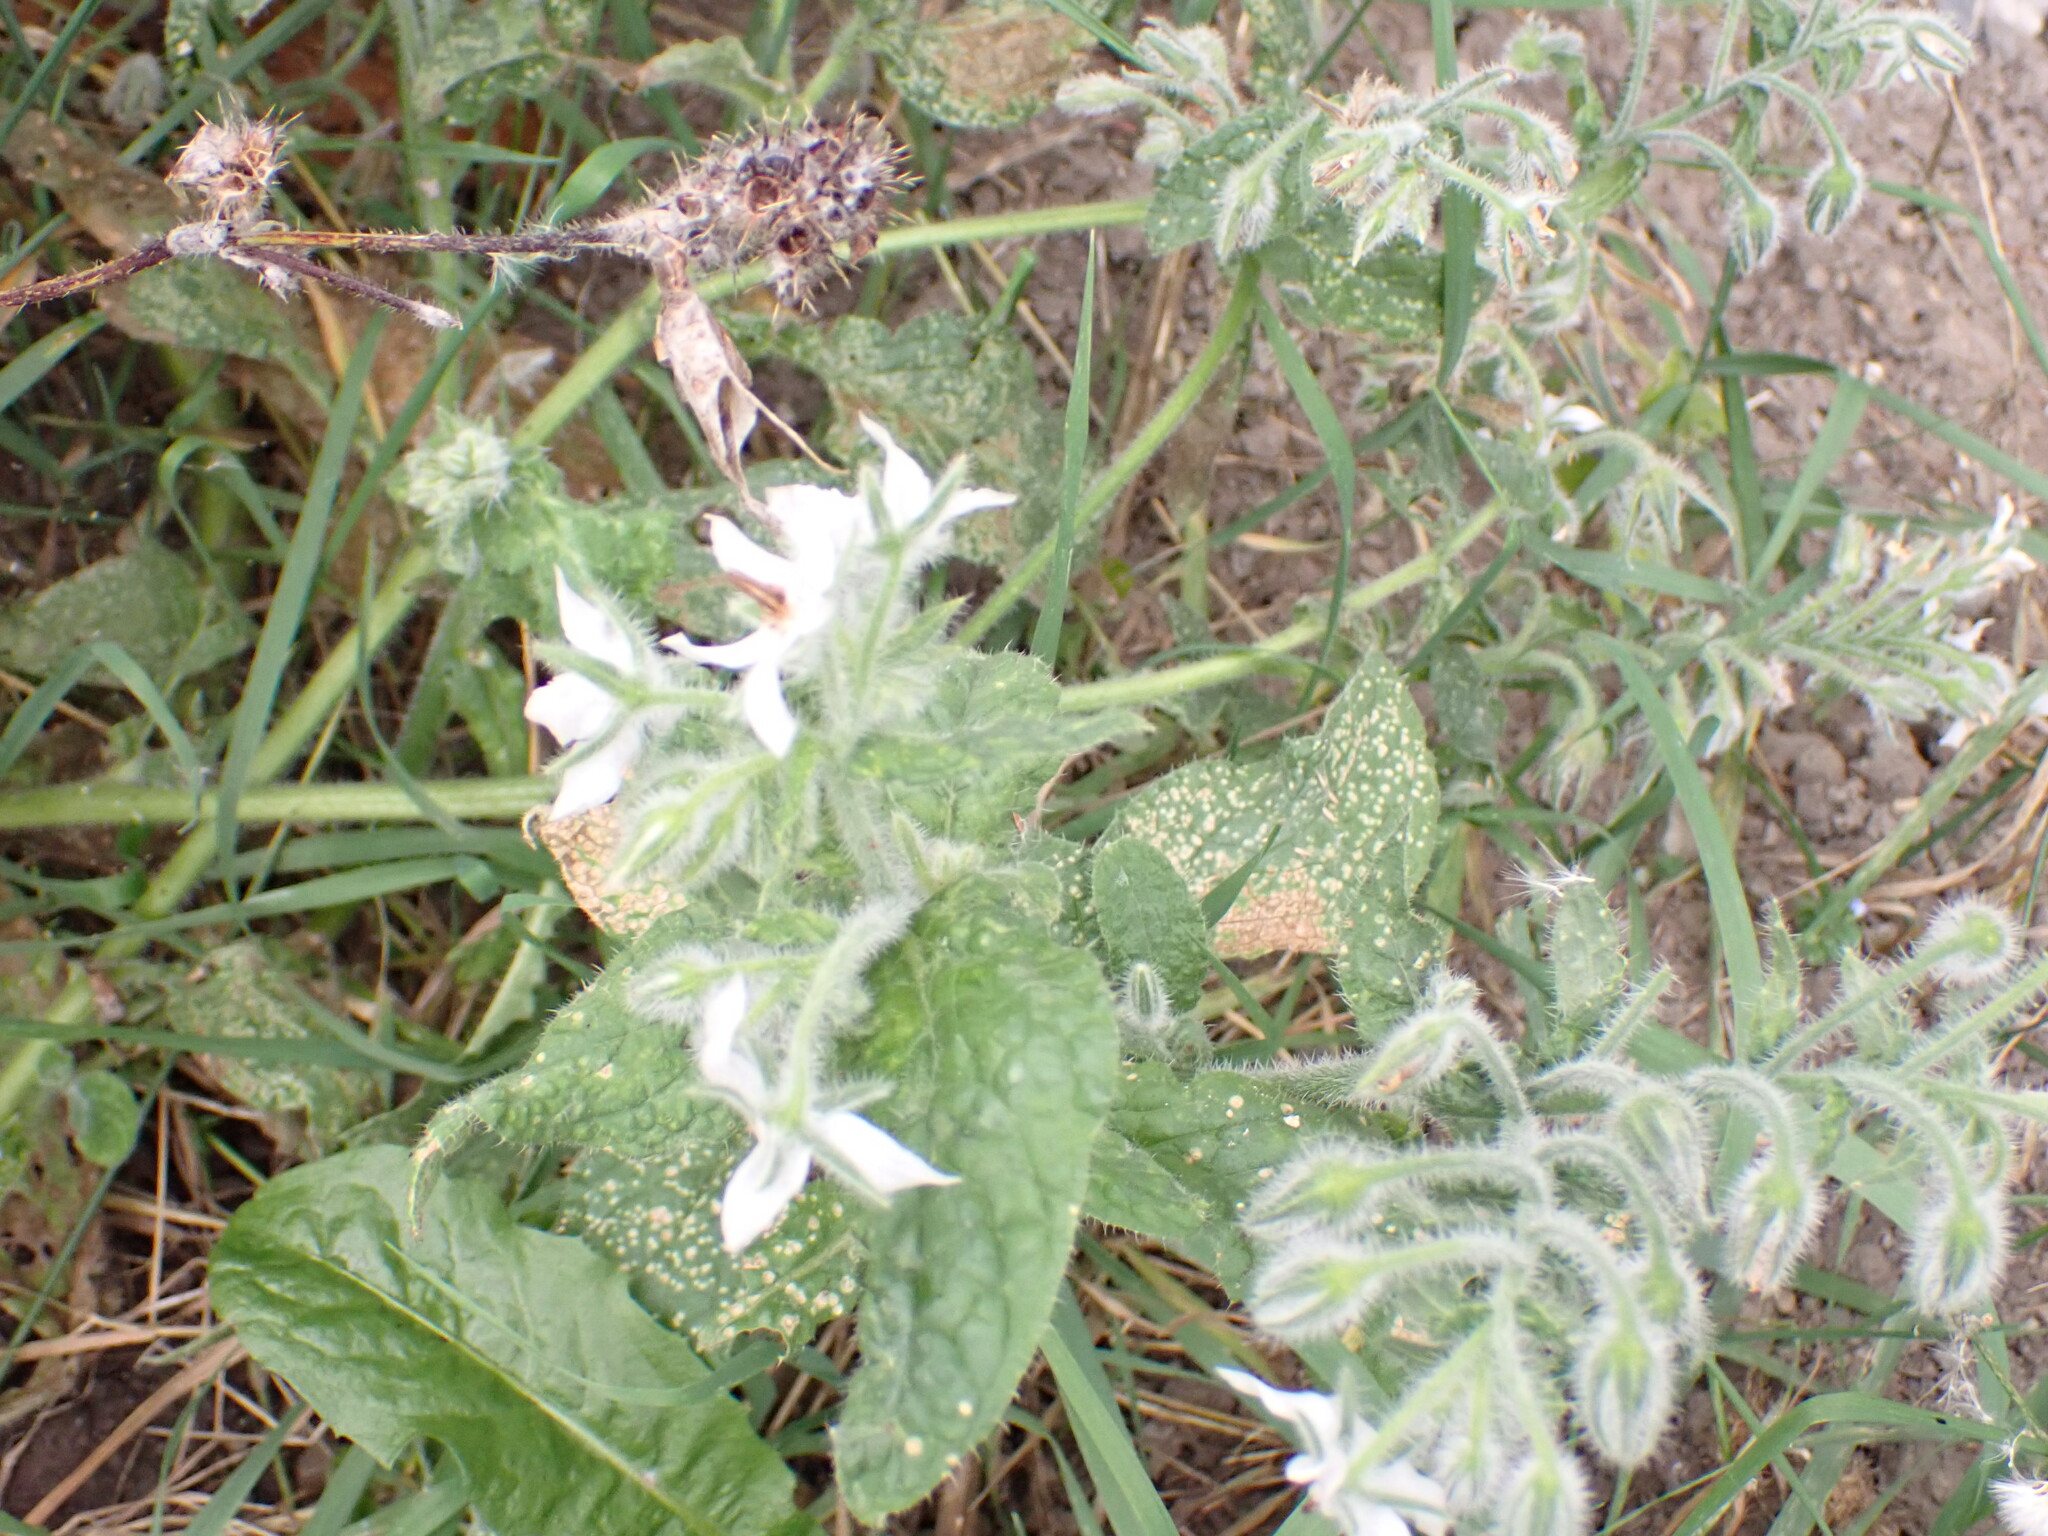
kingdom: Plantae
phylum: Tracheophyta
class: Magnoliopsida
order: Boraginales
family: Boraginaceae
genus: Borago
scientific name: Borago officinalis
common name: Borage
